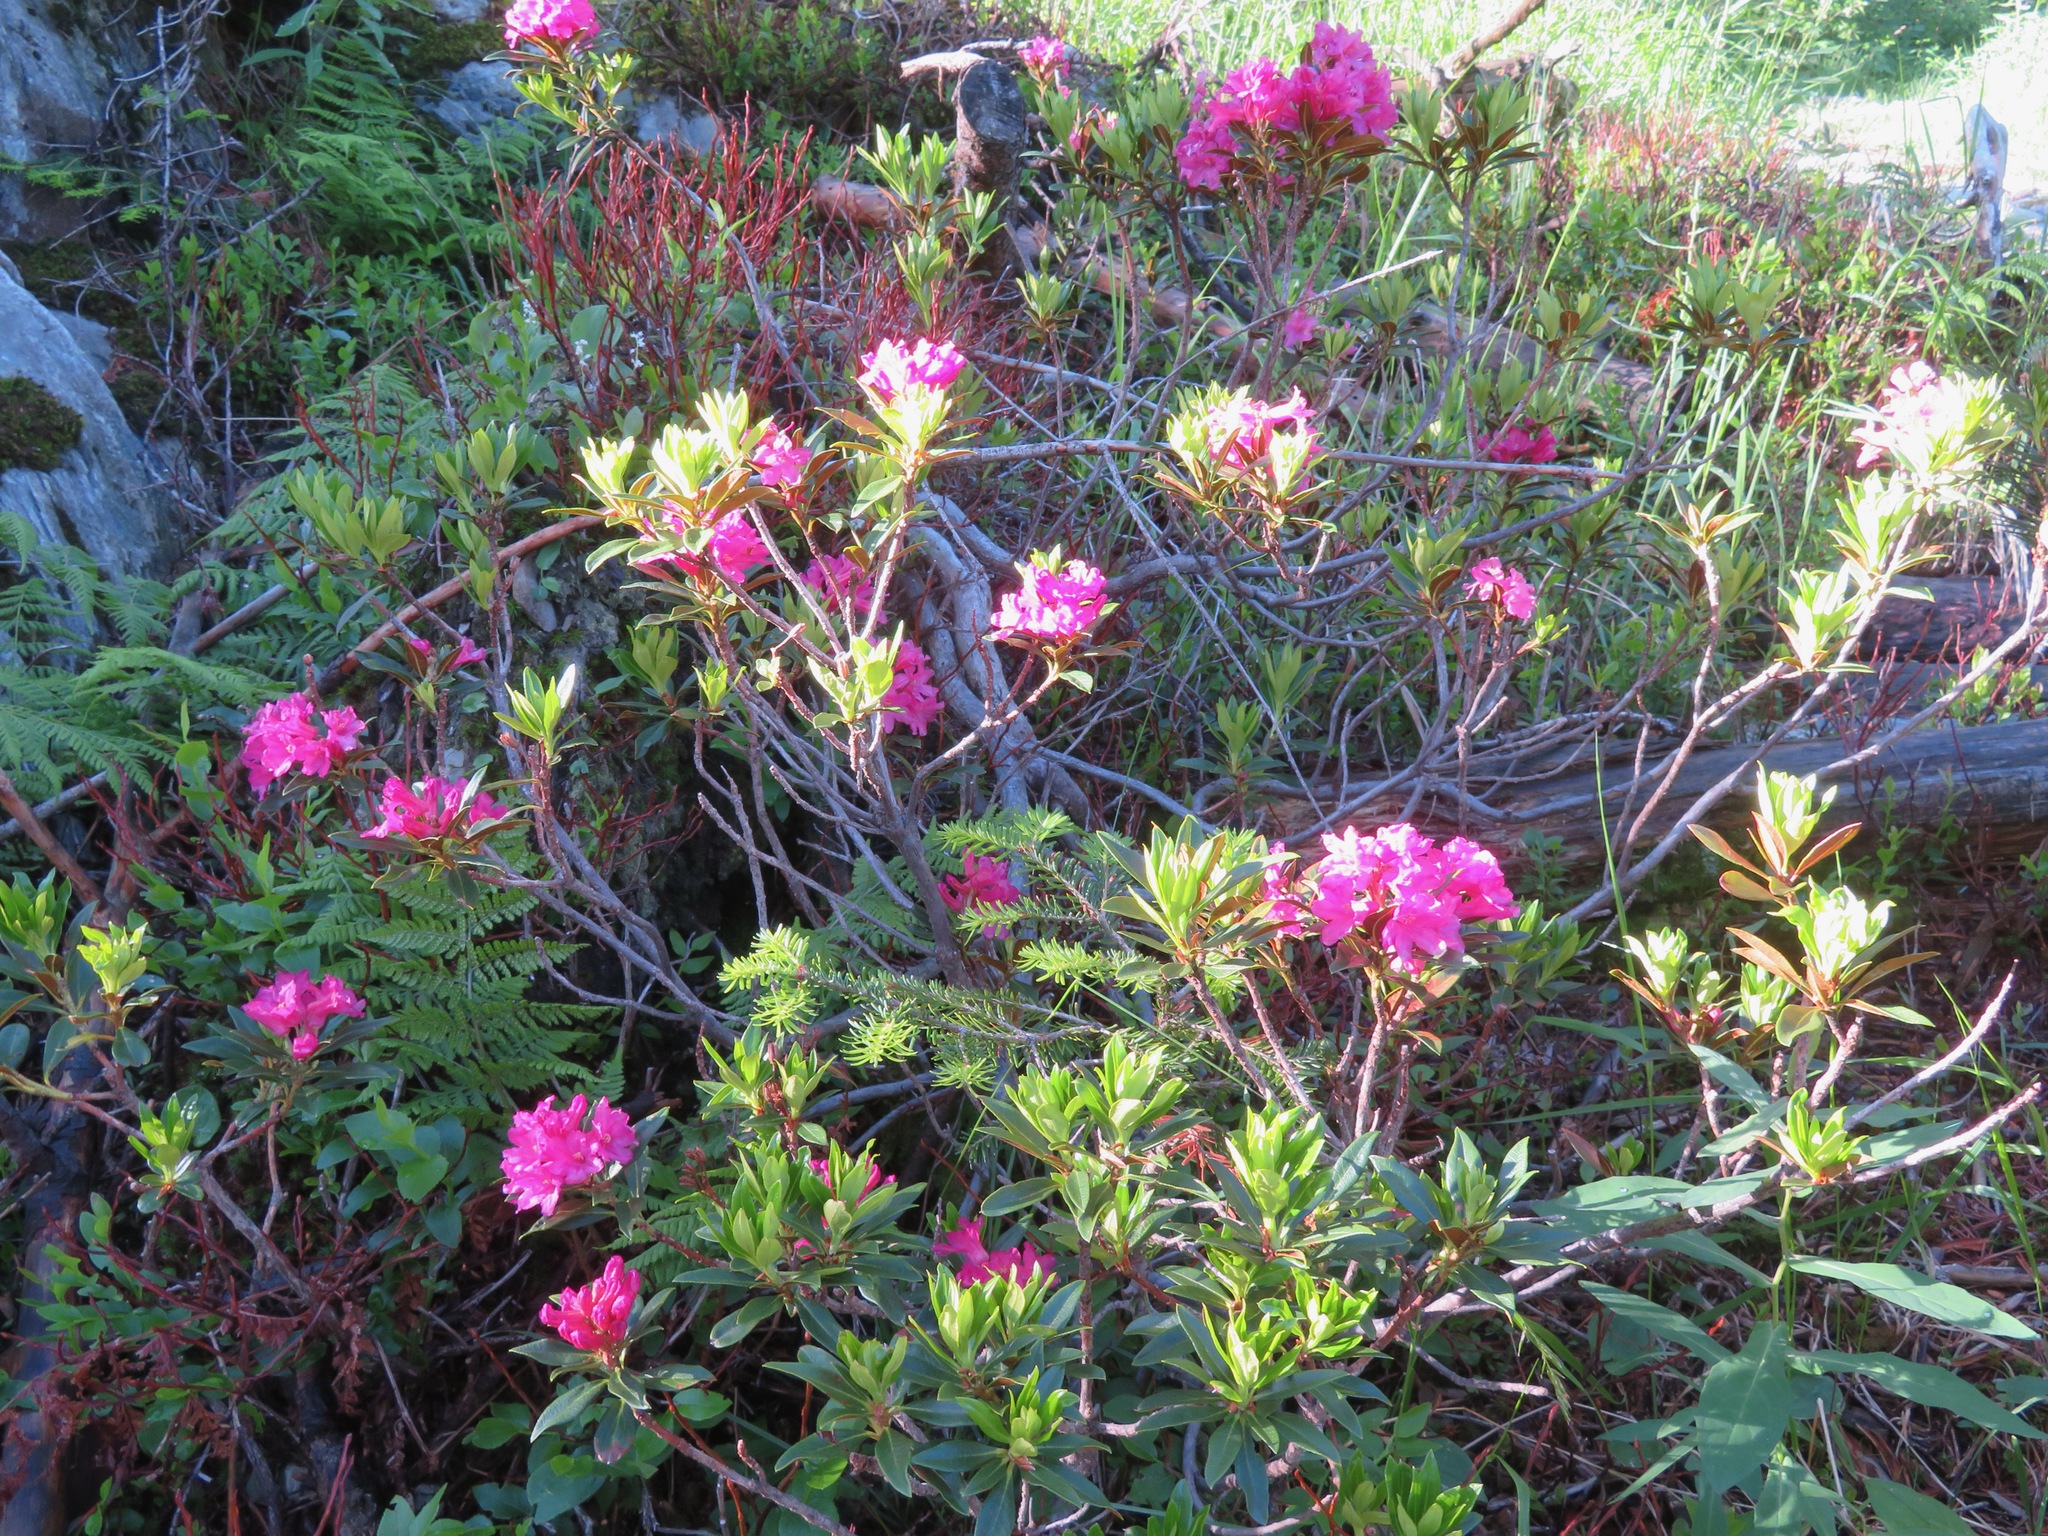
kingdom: Plantae
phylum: Tracheophyta
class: Magnoliopsida
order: Ericales
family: Ericaceae
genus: Rhododendron
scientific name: Rhododendron ferrugineum
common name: Alpenrose
